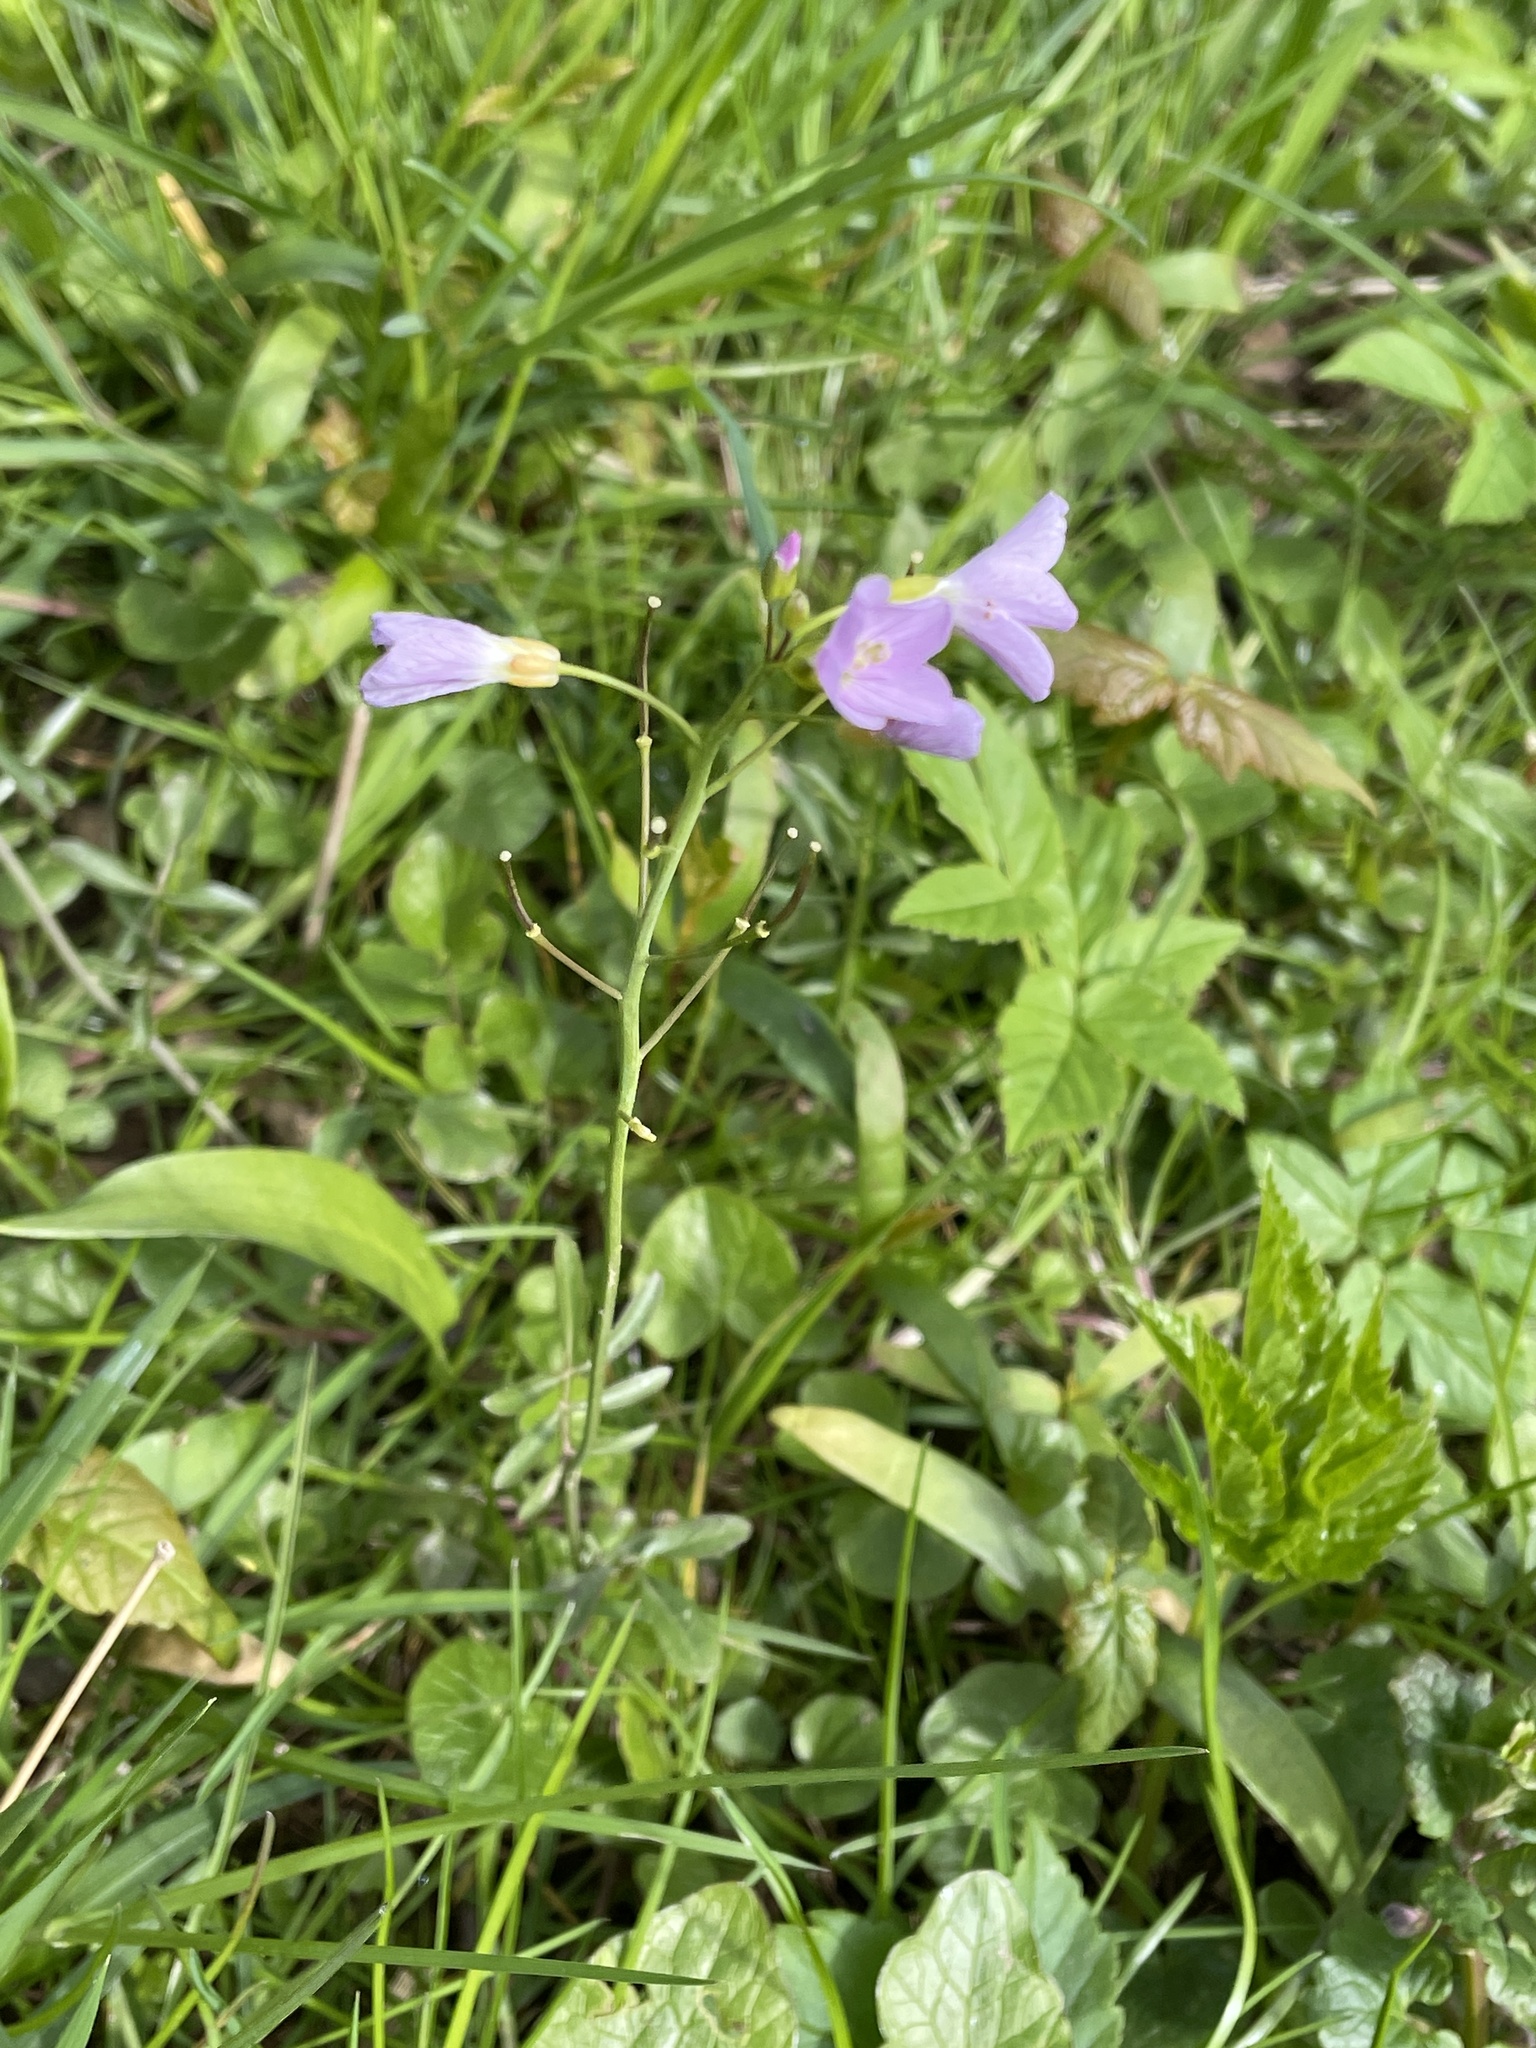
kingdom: Plantae
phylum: Tracheophyta
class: Magnoliopsida
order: Brassicales
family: Brassicaceae
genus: Cardamine
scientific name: Cardamine pratensis
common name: Cuckoo flower
